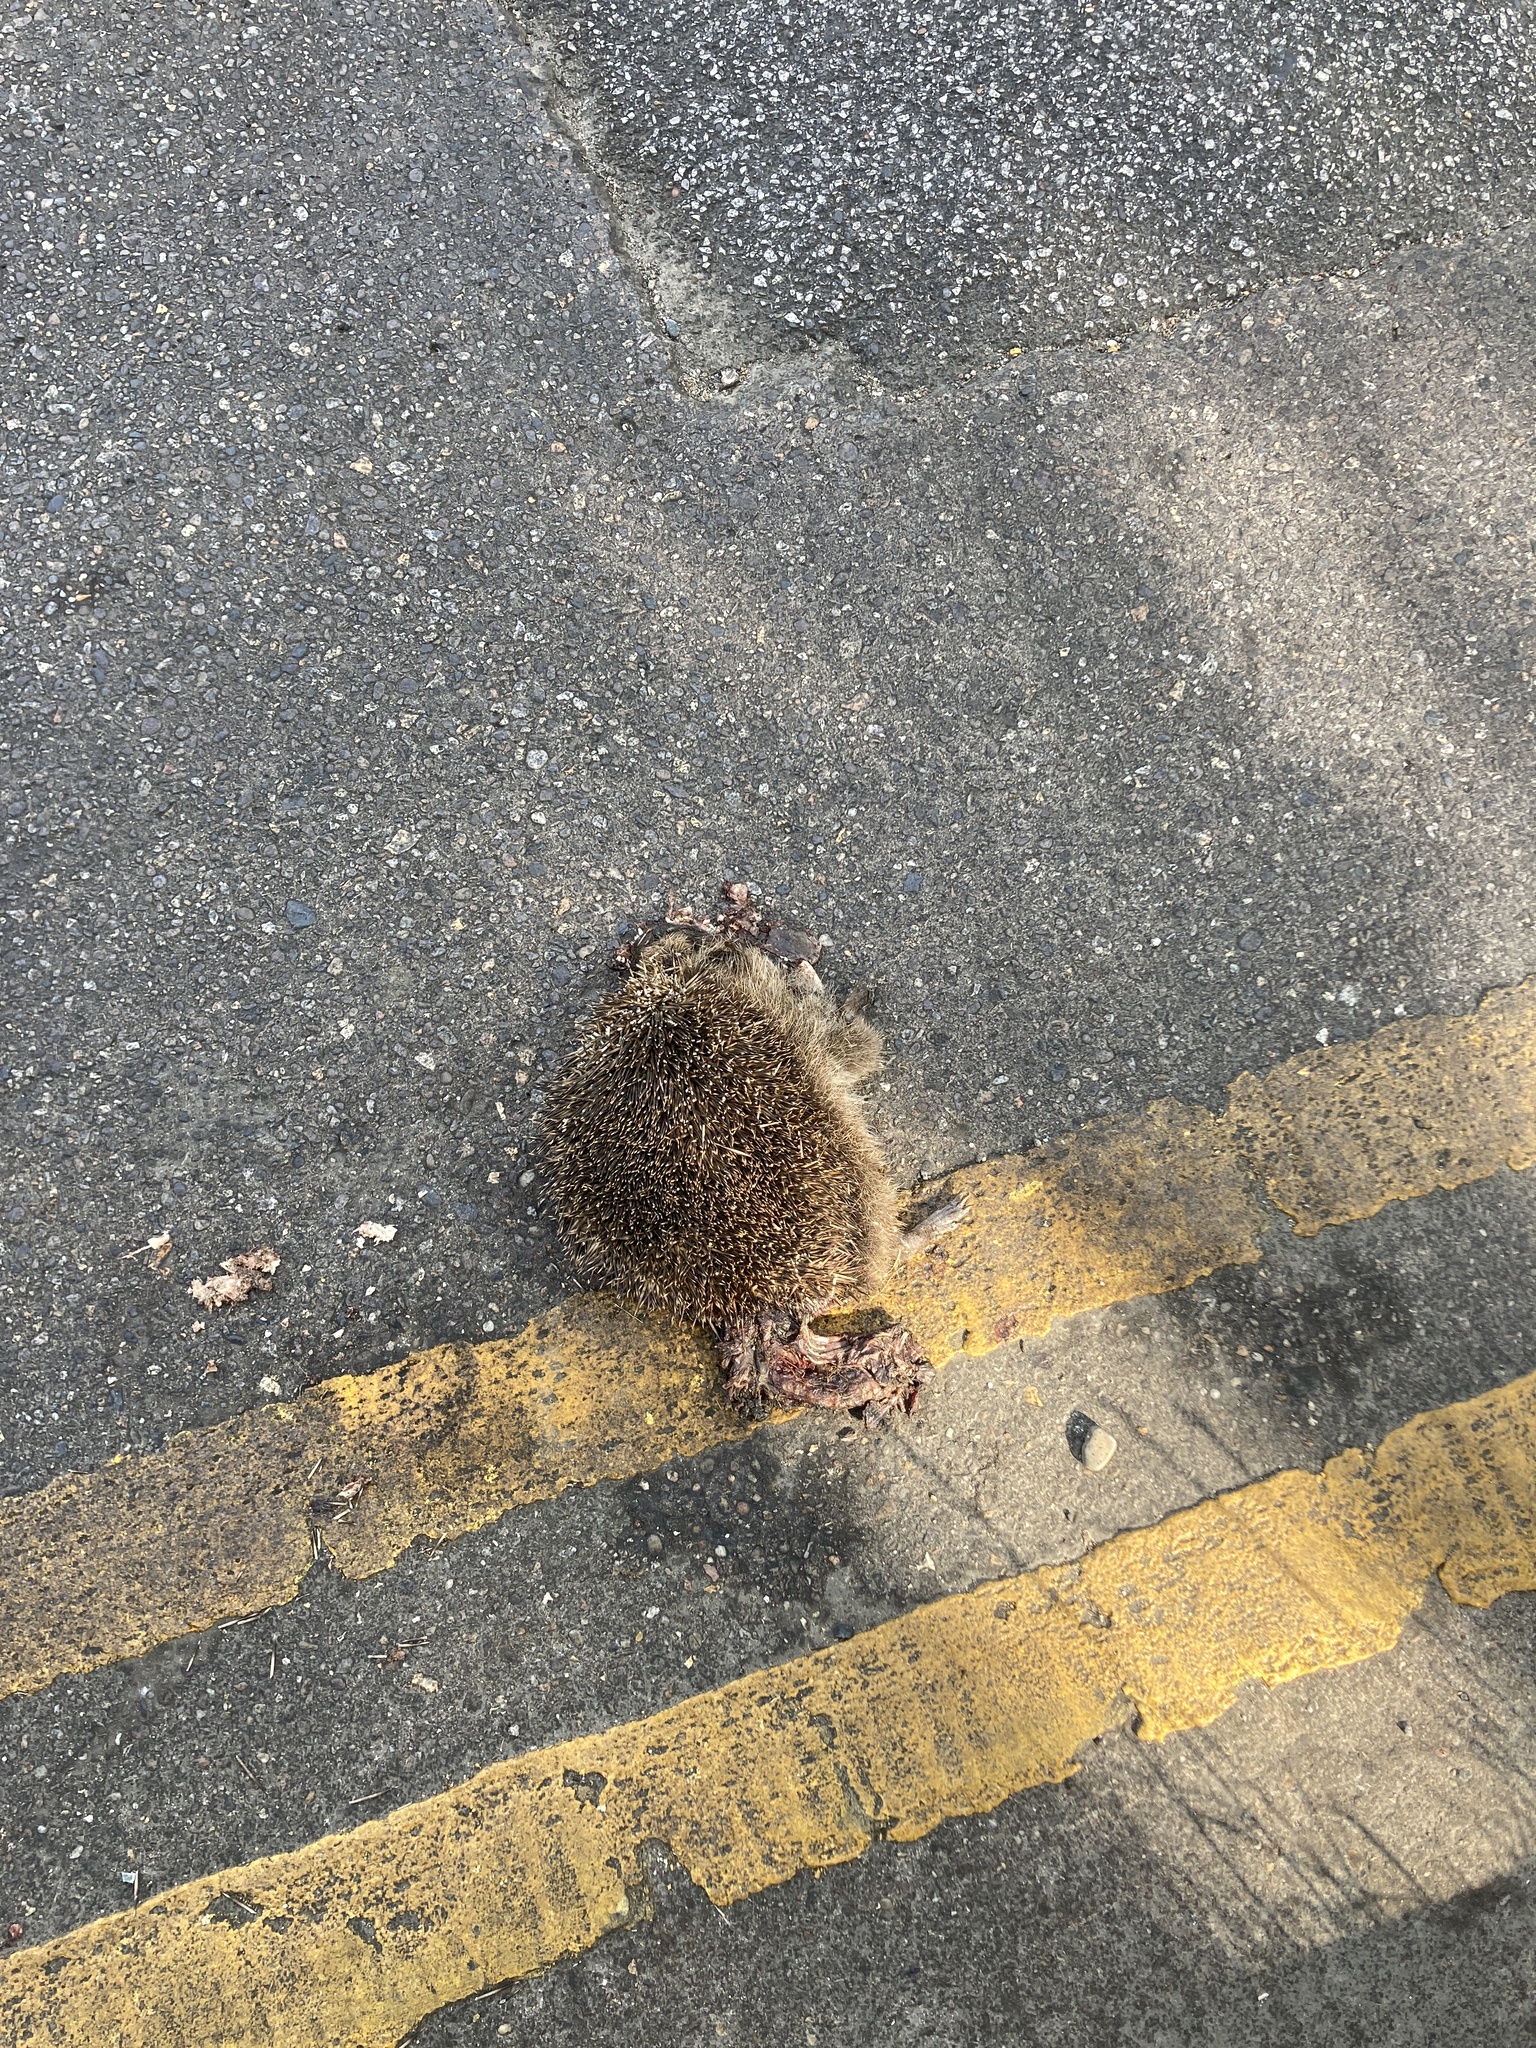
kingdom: Animalia
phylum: Chordata
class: Mammalia
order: Erinaceomorpha
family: Erinaceidae
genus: Erinaceus
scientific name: Erinaceus europaeus
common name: West european hedgehog
